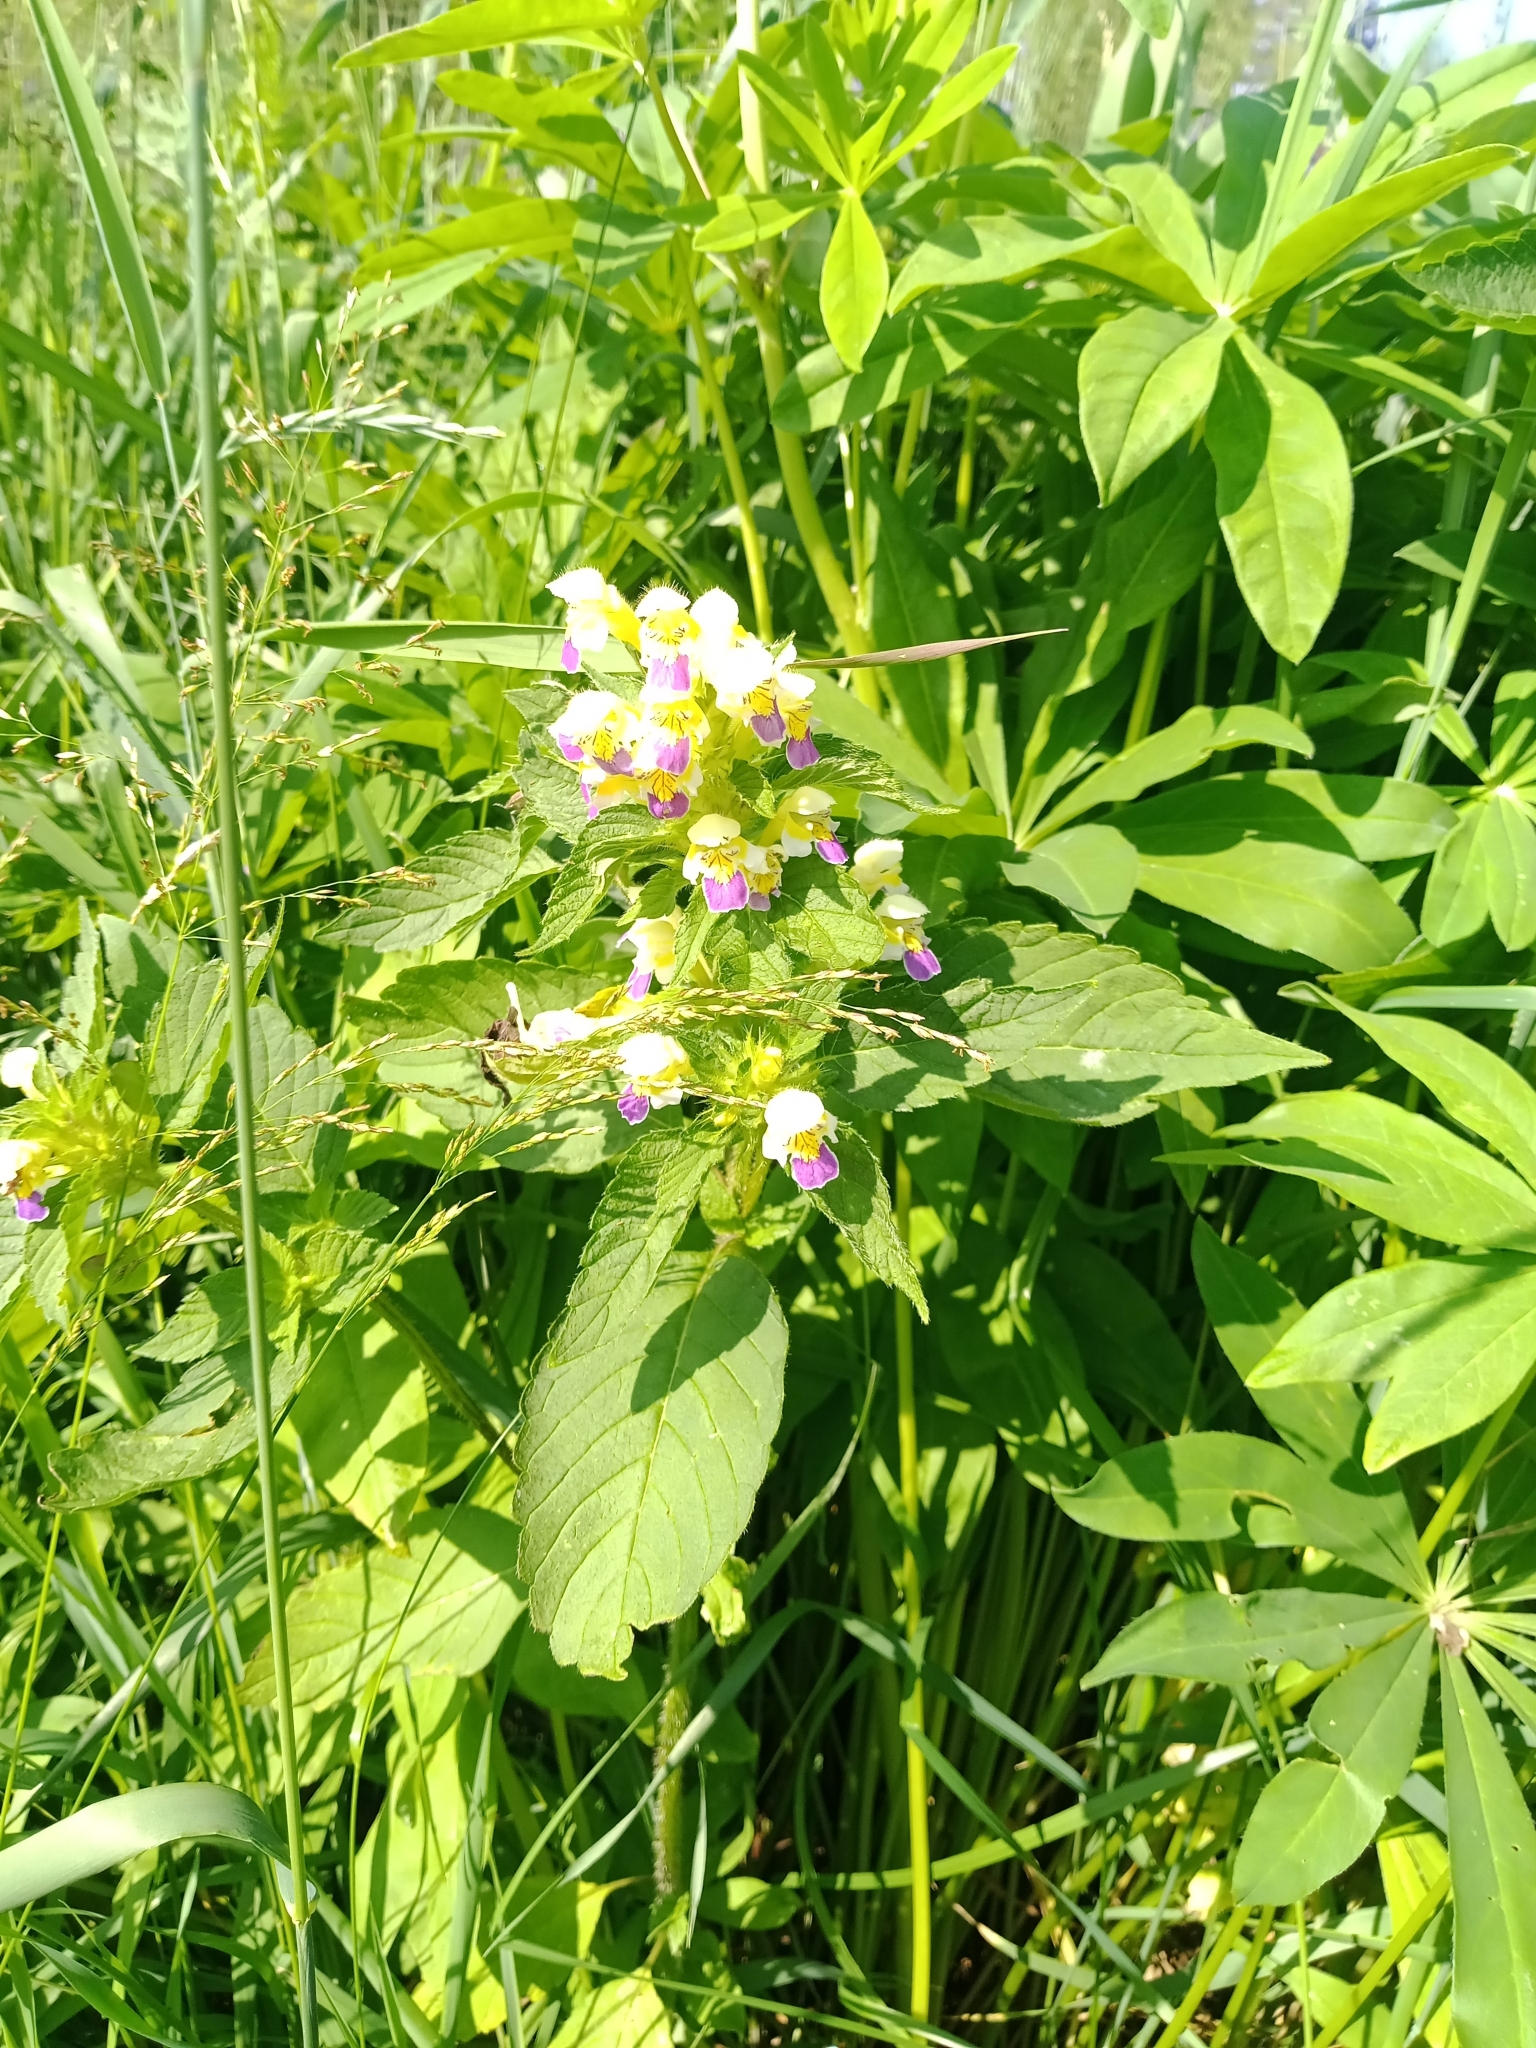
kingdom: Plantae
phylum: Tracheophyta
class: Magnoliopsida
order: Lamiales
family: Lamiaceae
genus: Galeopsis
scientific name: Galeopsis speciosa
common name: Large-flowered hemp-nettle
